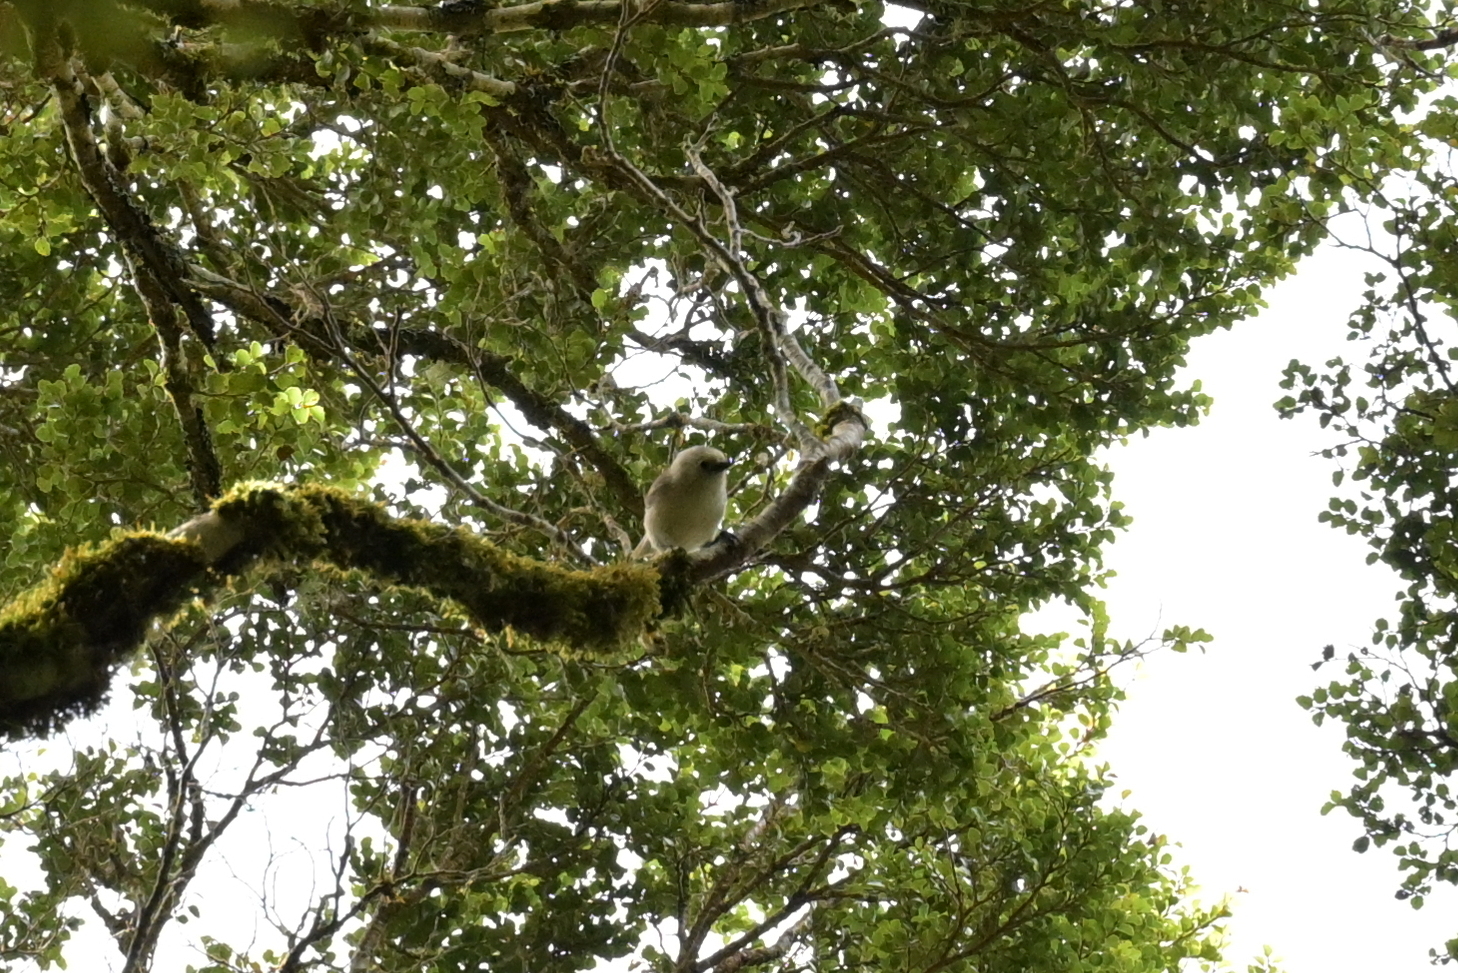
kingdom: Animalia
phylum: Chordata
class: Aves
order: Passeriformes
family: Acanthizidae
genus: Mohoua
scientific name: Mohoua albicilla
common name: Whitehead
